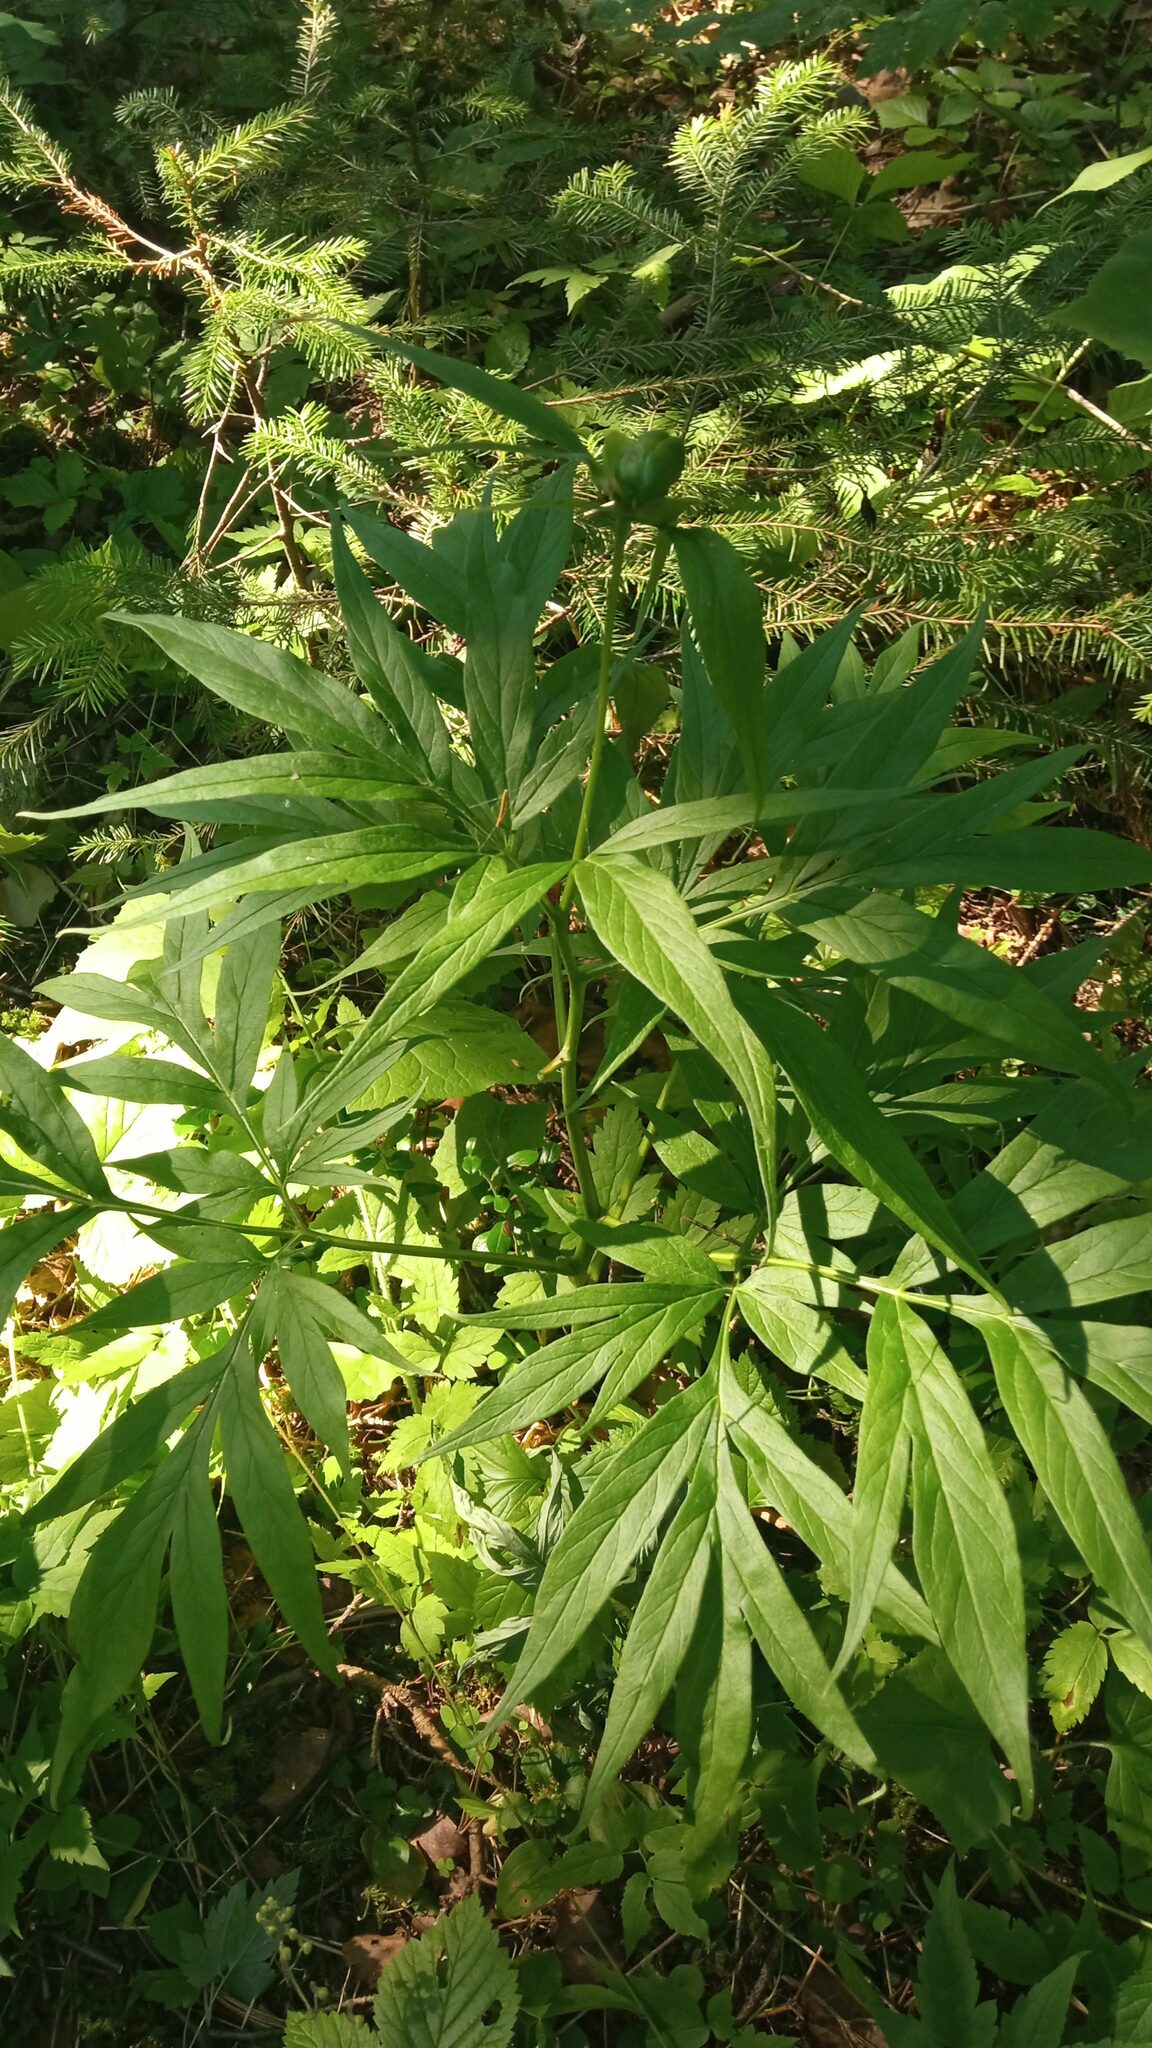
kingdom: Plantae
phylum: Tracheophyta
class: Magnoliopsida
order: Saxifragales
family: Paeoniaceae
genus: Paeonia
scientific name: Paeonia anomala
